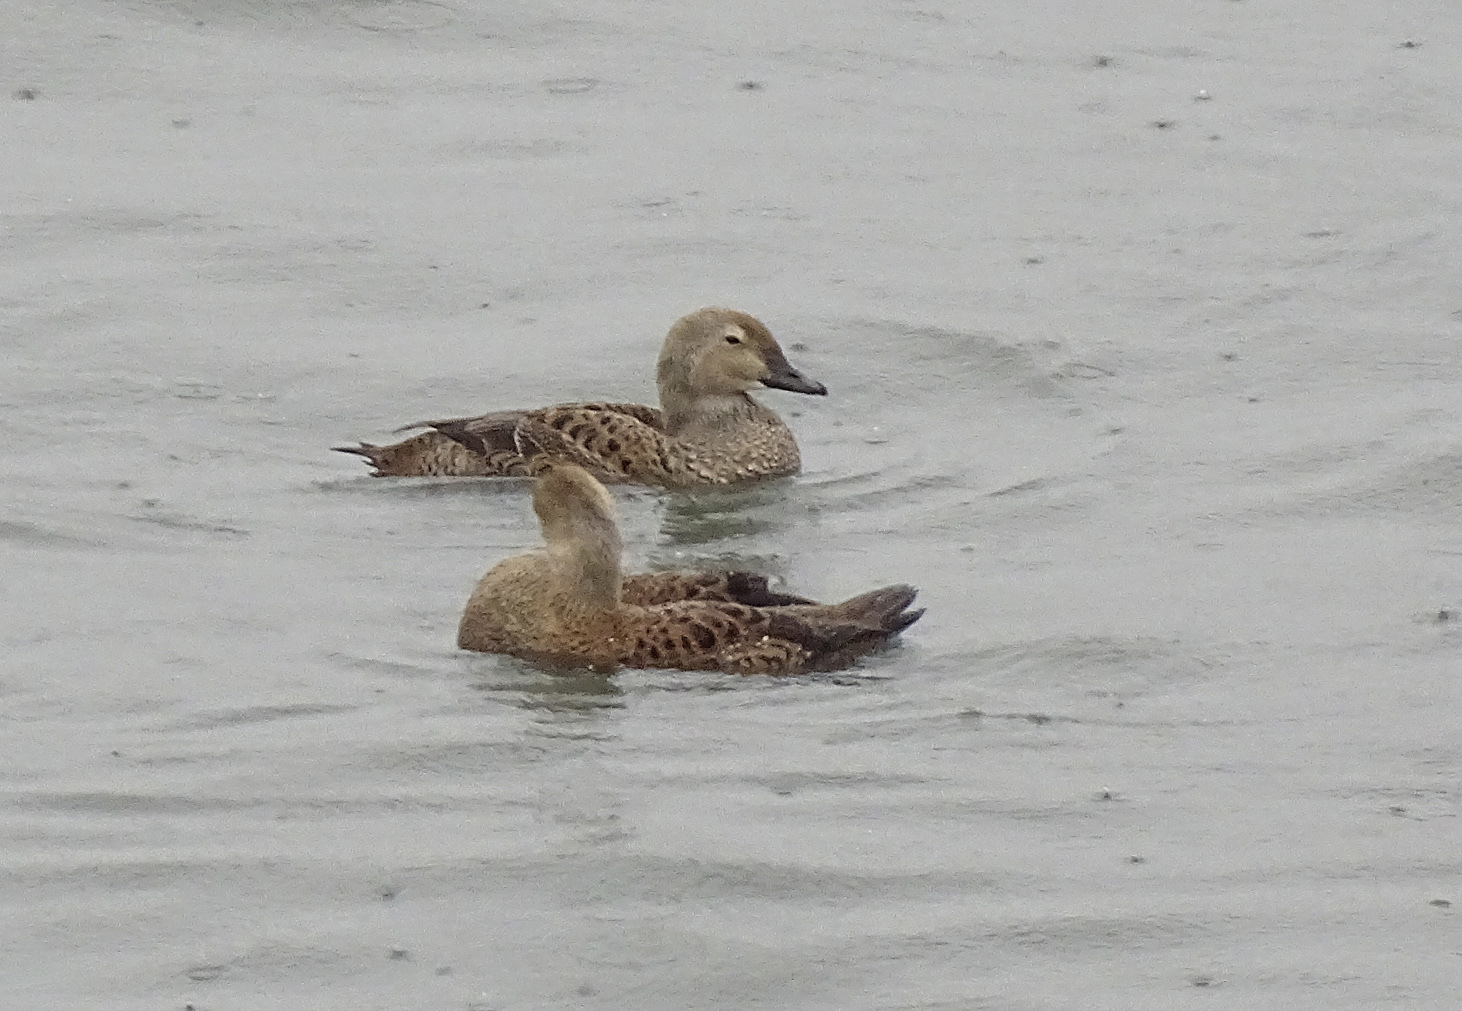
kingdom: Animalia
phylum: Chordata
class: Aves
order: Anseriformes
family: Anatidae
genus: Somateria
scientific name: Somateria spectabilis
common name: King eider
